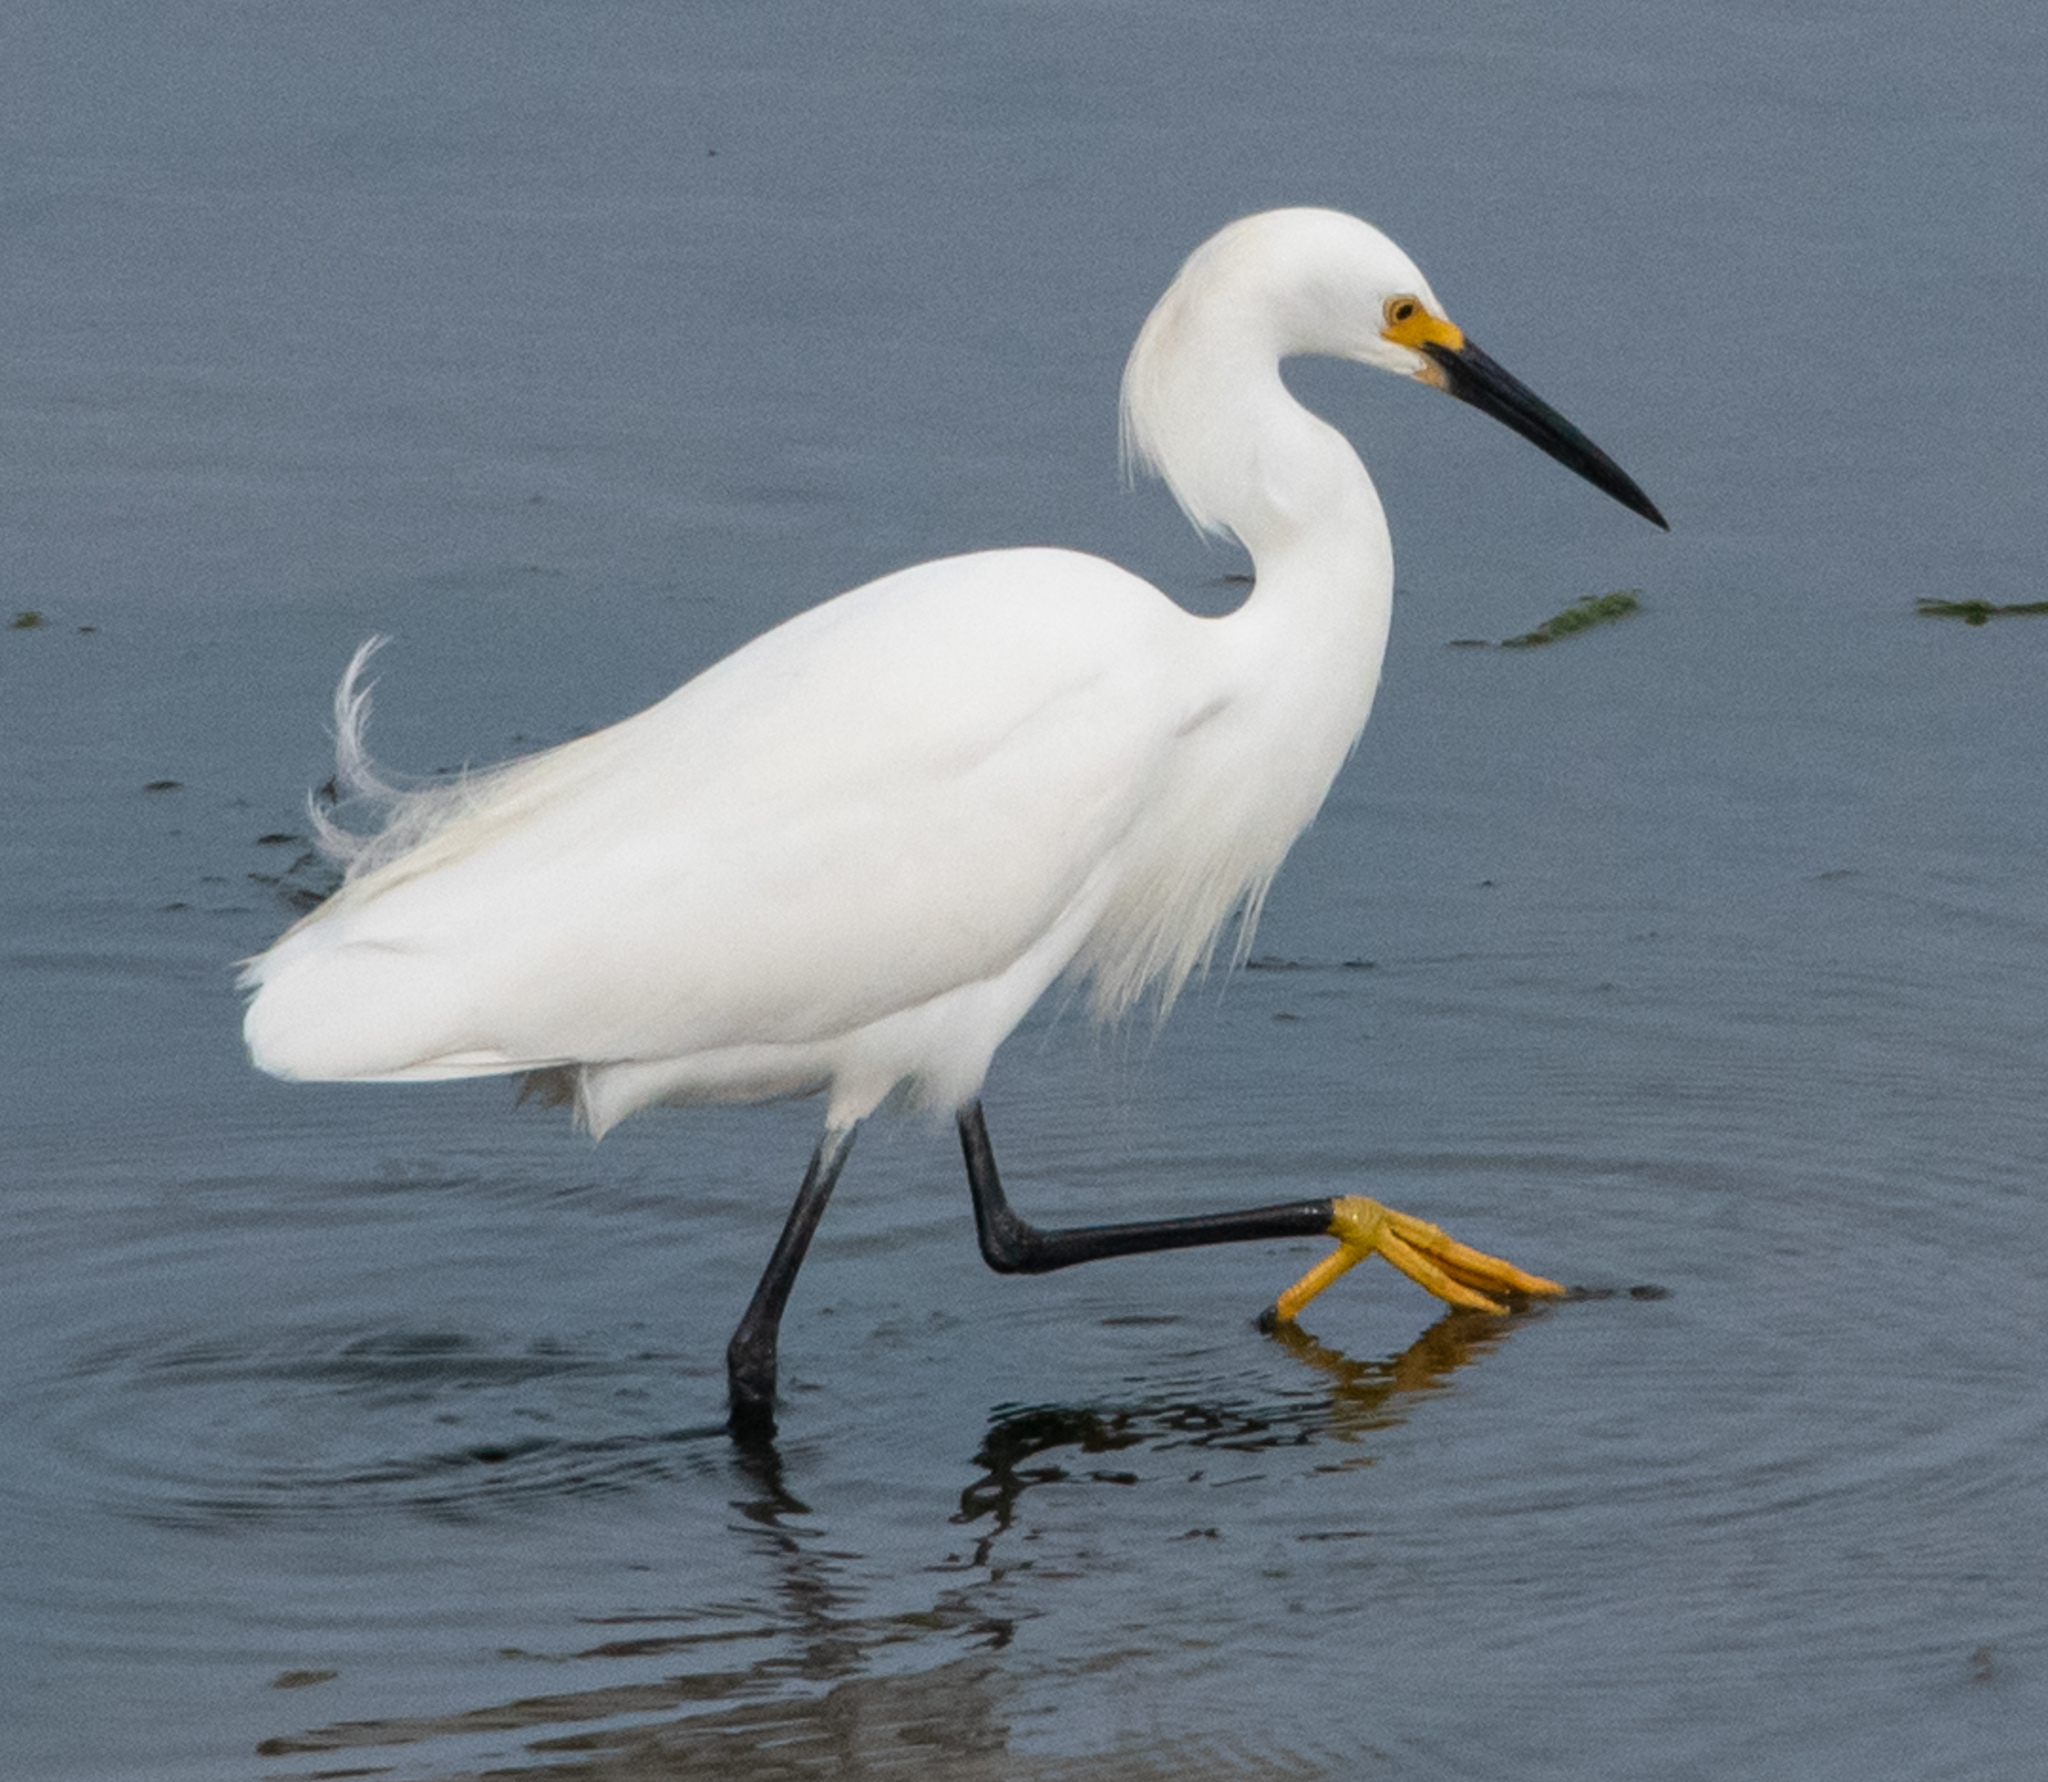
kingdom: Animalia
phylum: Chordata
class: Aves
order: Pelecaniformes
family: Ardeidae
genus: Egretta
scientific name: Egretta thula
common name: Snowy egret
